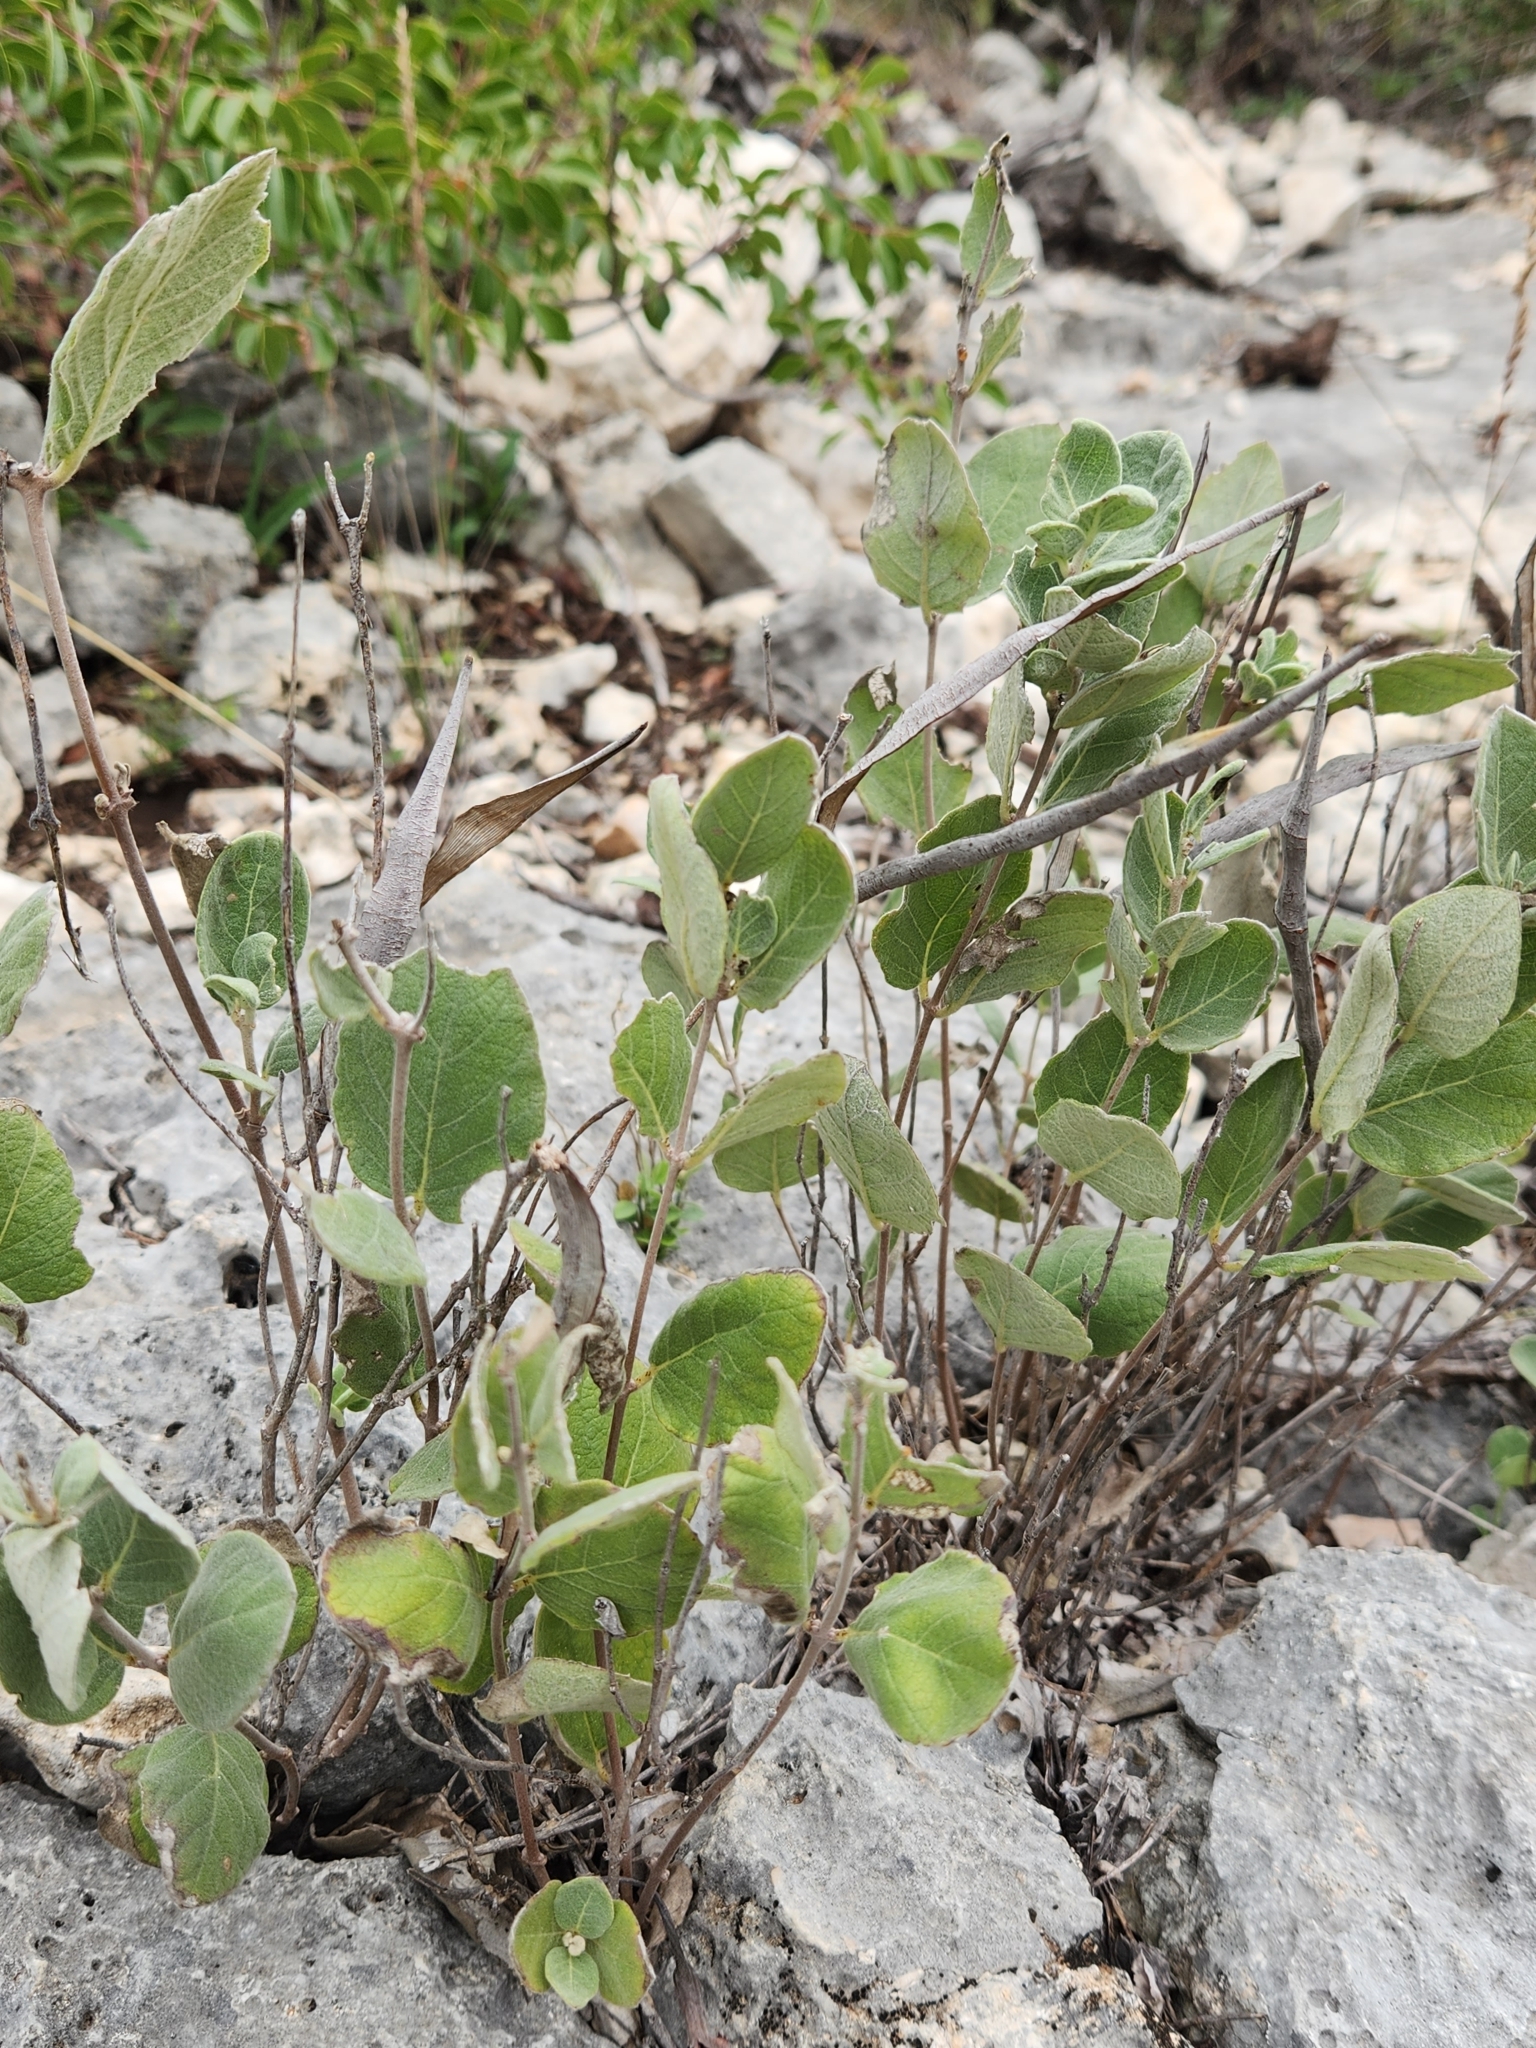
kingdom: Plantae
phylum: Tracheophyta
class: Magnoliopsida
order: Gentianales
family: Apocynaceae
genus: Mandevilla
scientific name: Mandevilla macrosiphon
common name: Plateau rocktrumpet
